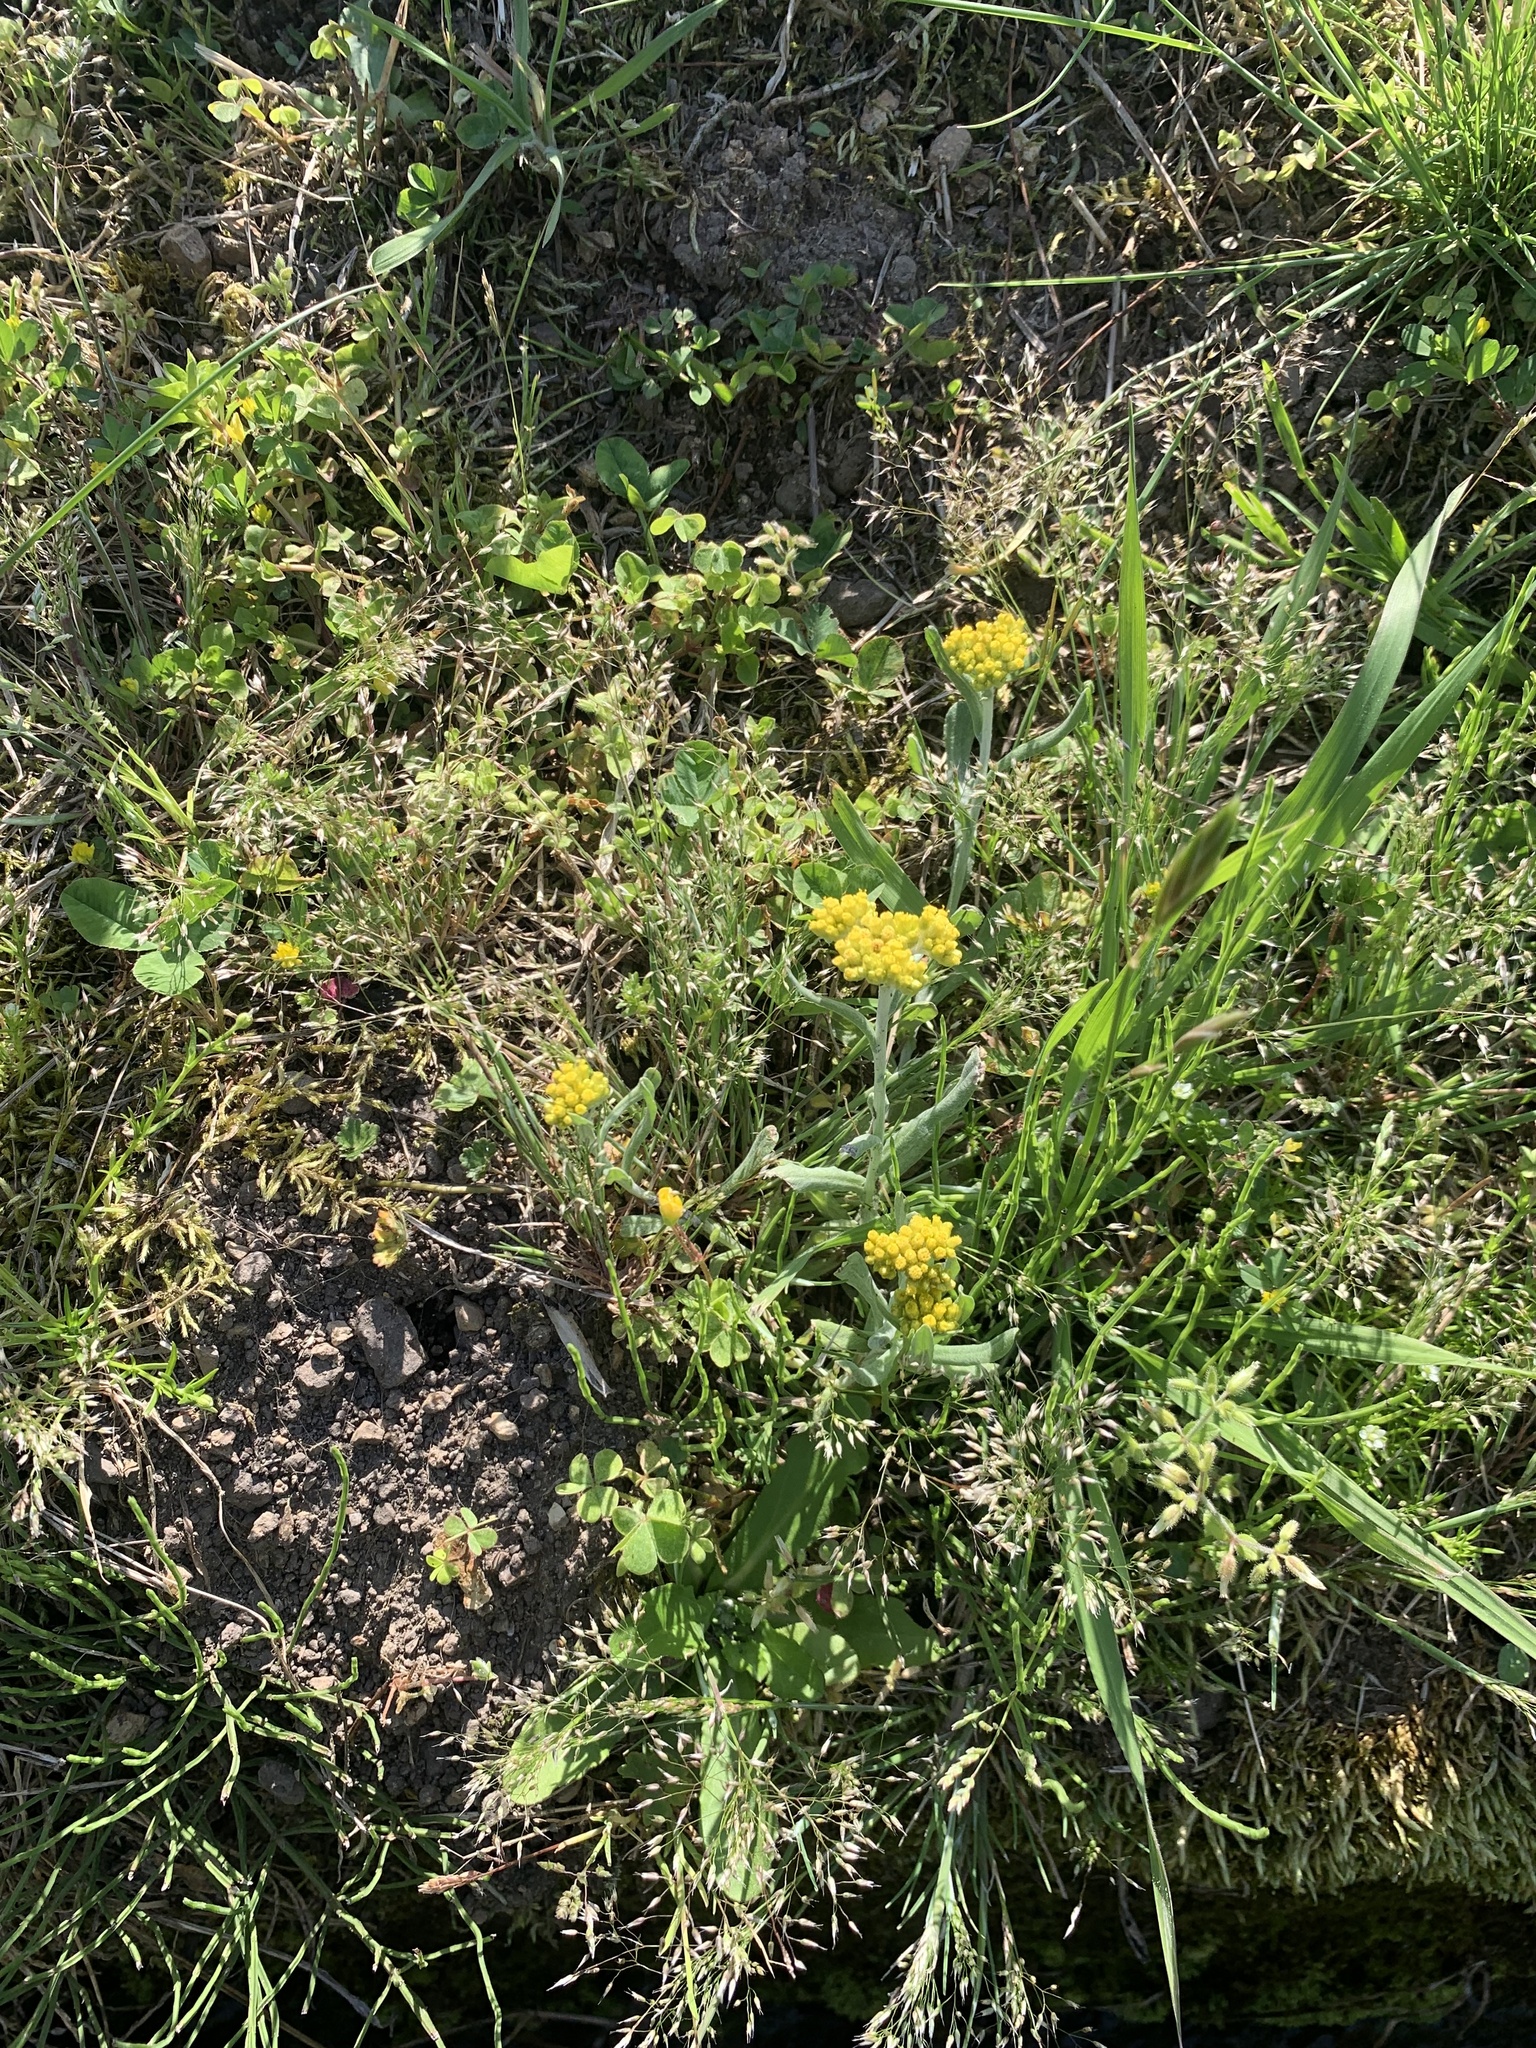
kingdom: Plantae
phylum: Tracheophyta
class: Magnoliopsida
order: Asterales
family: Asteraceae
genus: Pseudognaphalium
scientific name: Pseudognaphalium affine
